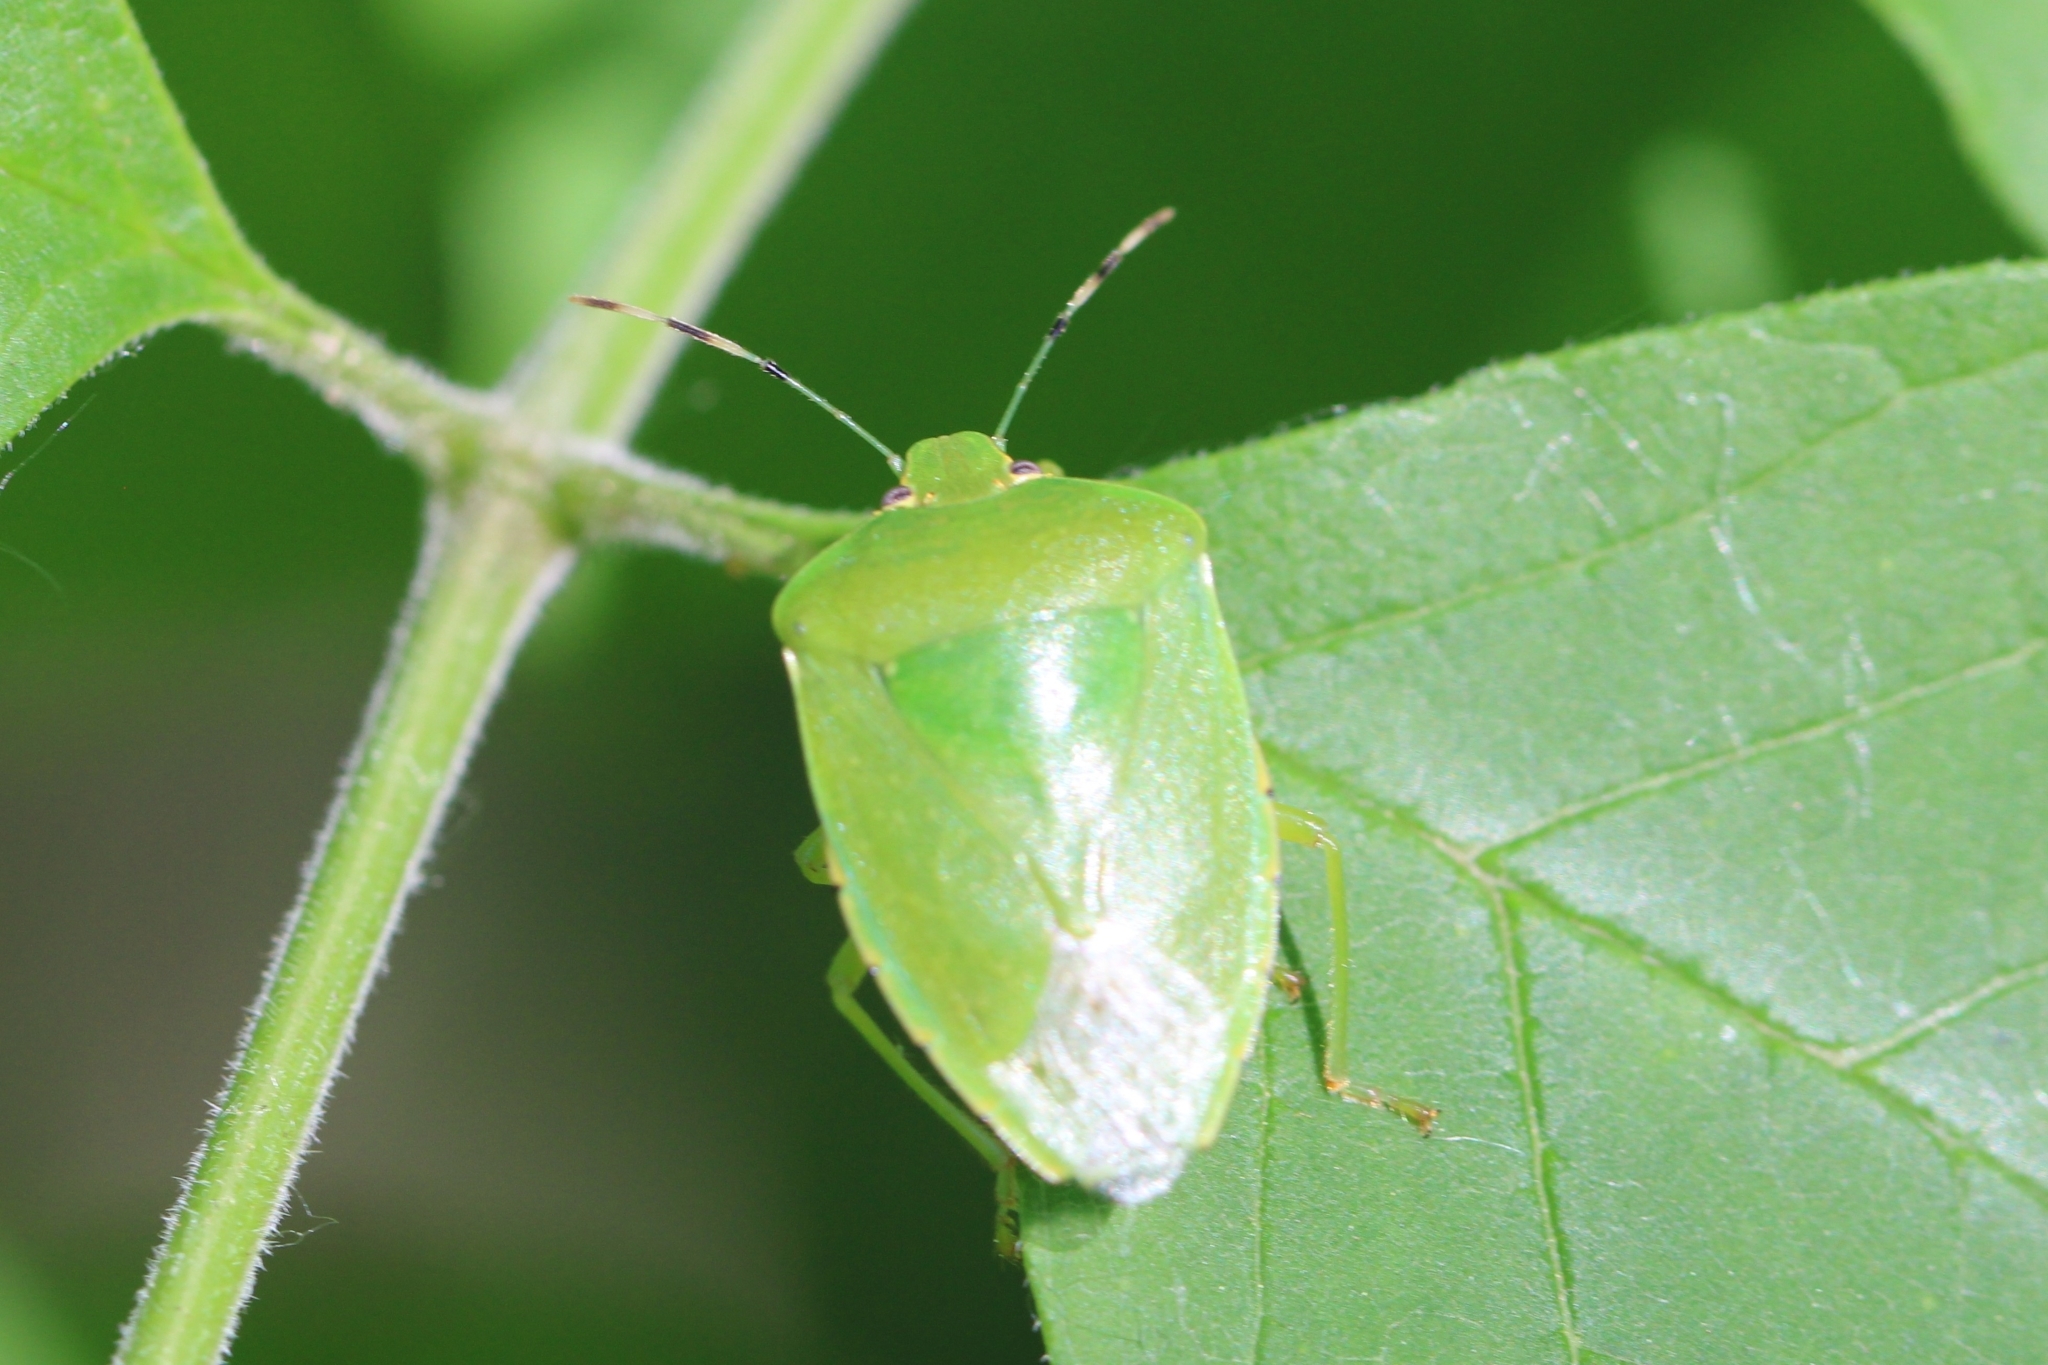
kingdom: Animalia
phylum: Arthropoda
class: Insecta
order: Hemiptera
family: Pentatomidae
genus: Chinavia
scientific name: Chinavia hilaris
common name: Green stink bug
